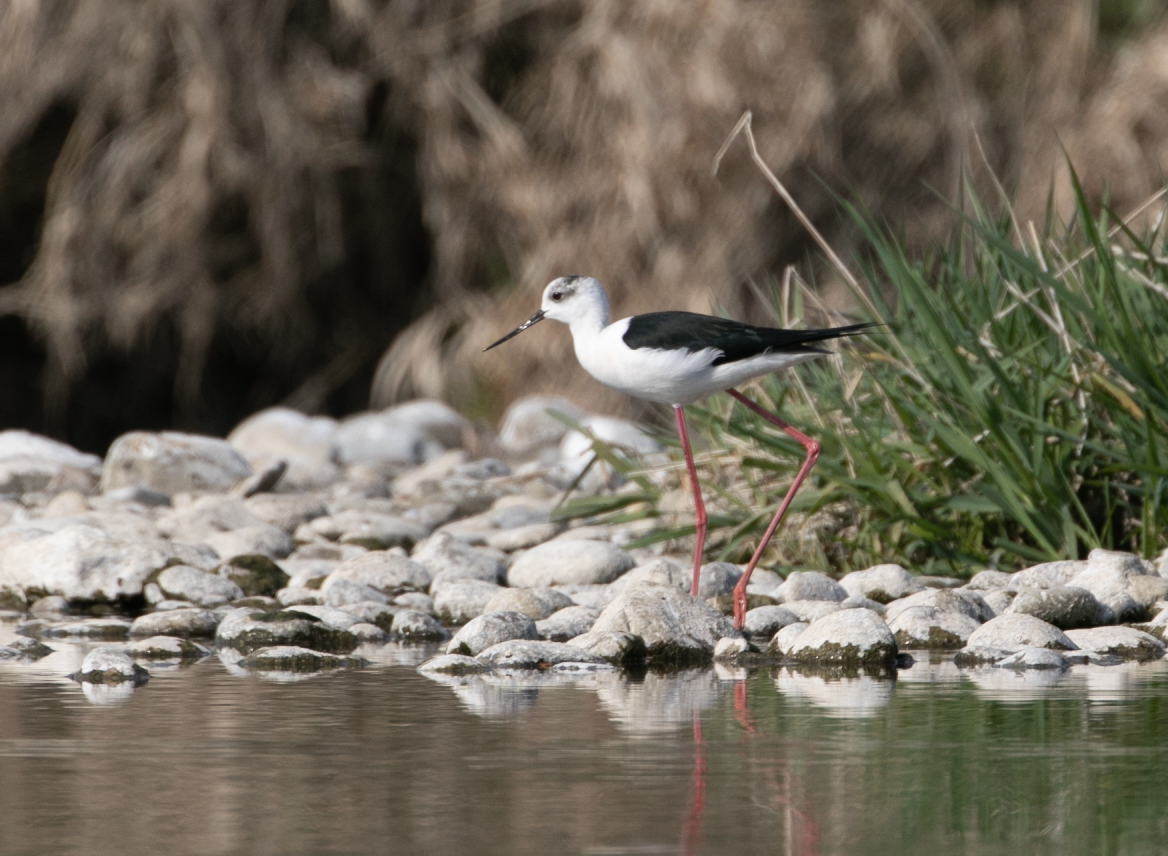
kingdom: Animalia
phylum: Chordata
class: Aves
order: Charadriiformes
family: Recurvirostridae
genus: Himantopus
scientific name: Himantopus himantopus
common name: Black-winged stilt
